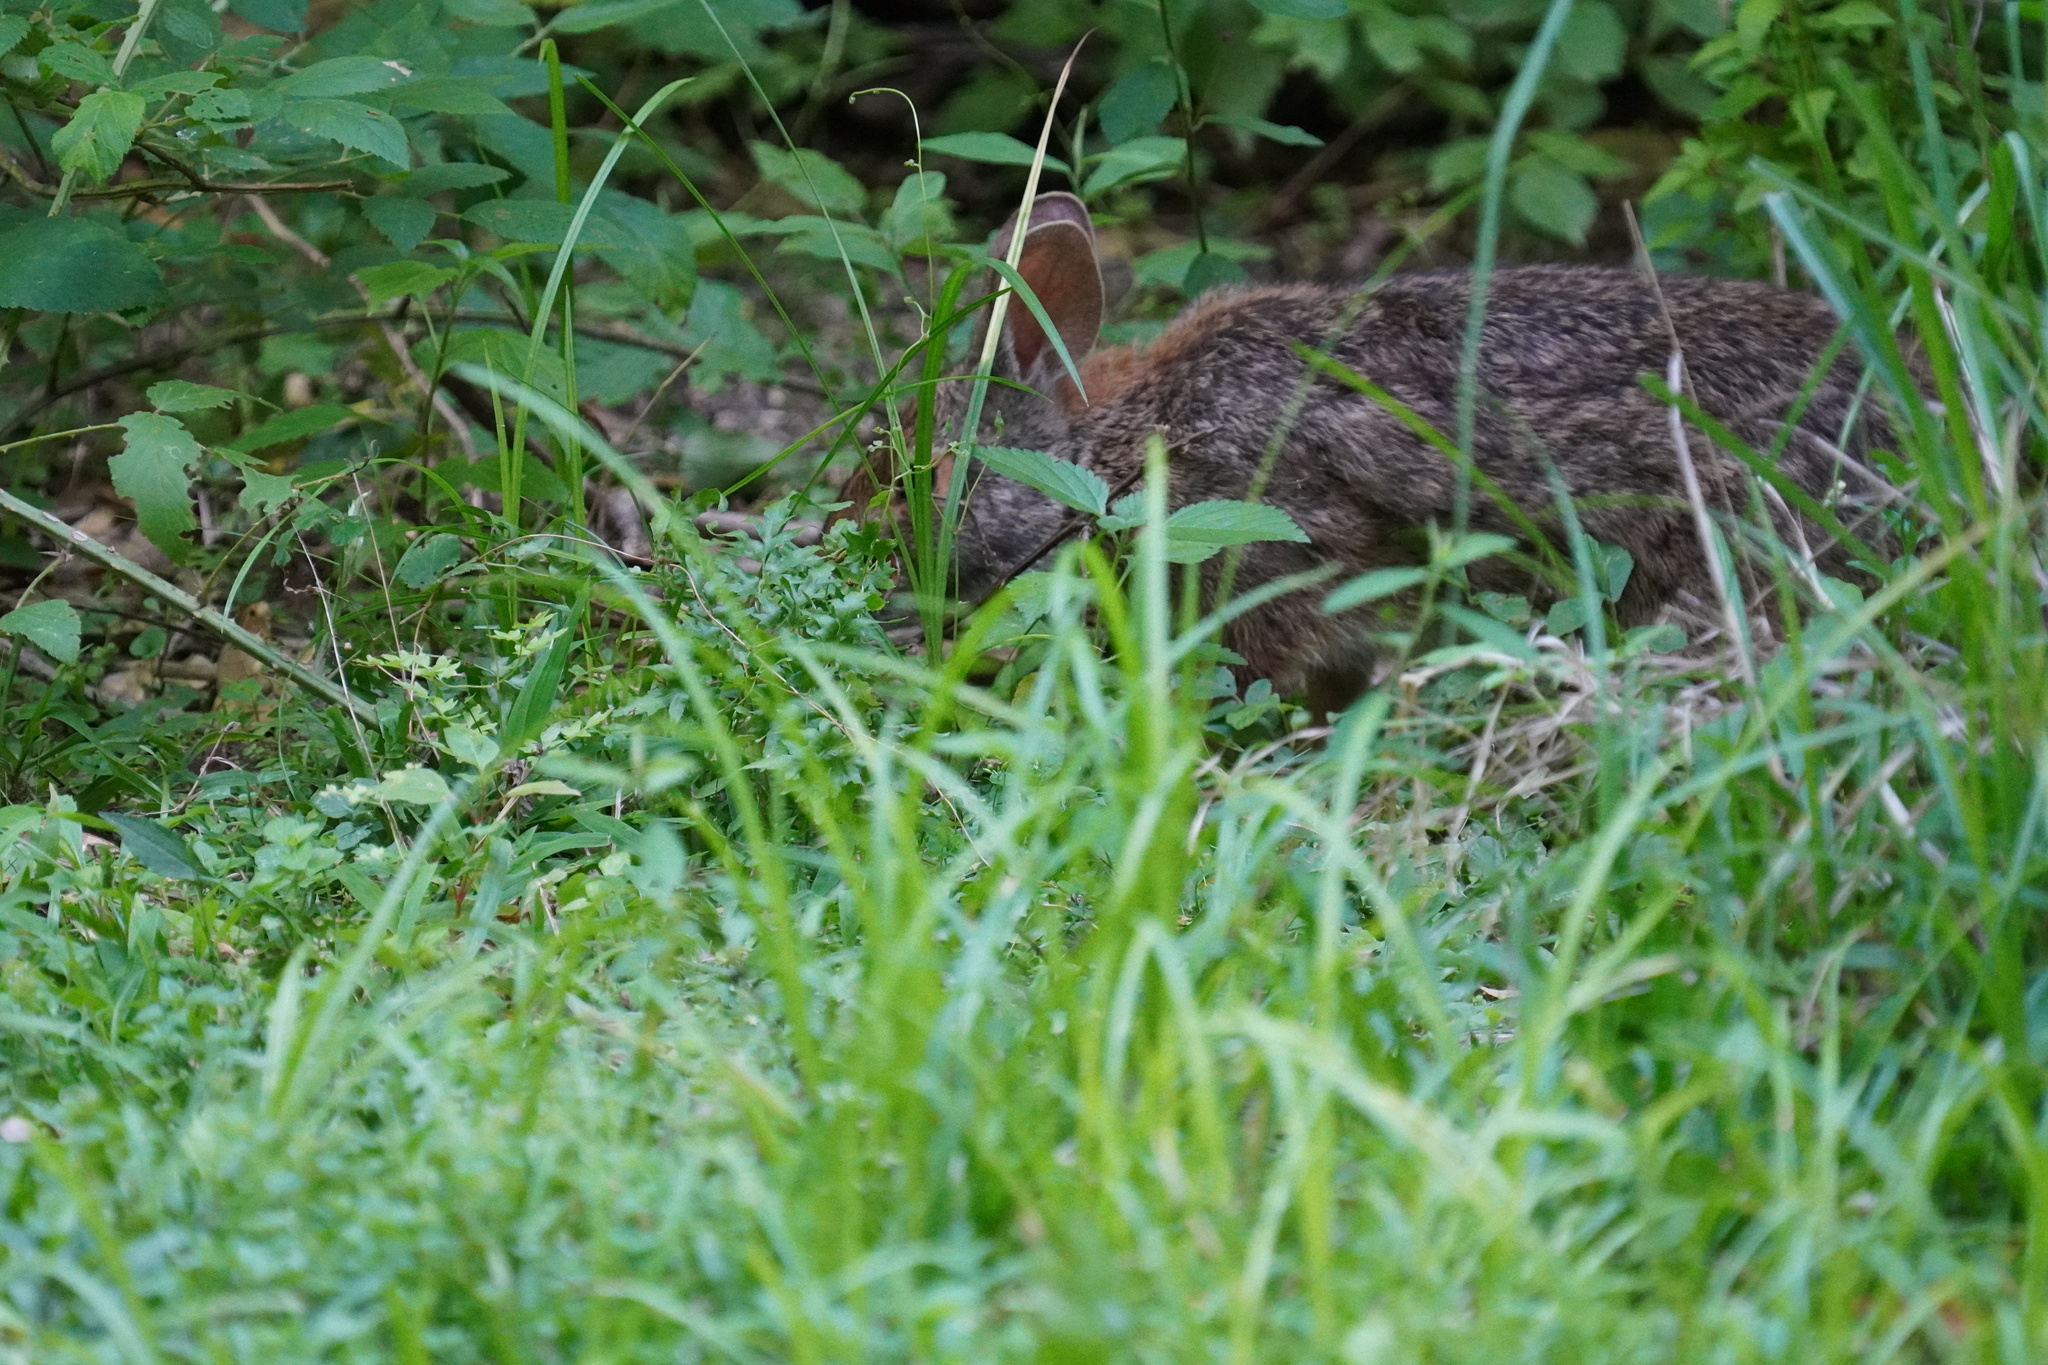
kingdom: Animalia
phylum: Chordata
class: Mammalia
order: Lagomorpha
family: Leporidae
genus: Sylvilagus
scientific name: Sylvilagus aquaticus
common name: Swamp rabbit
